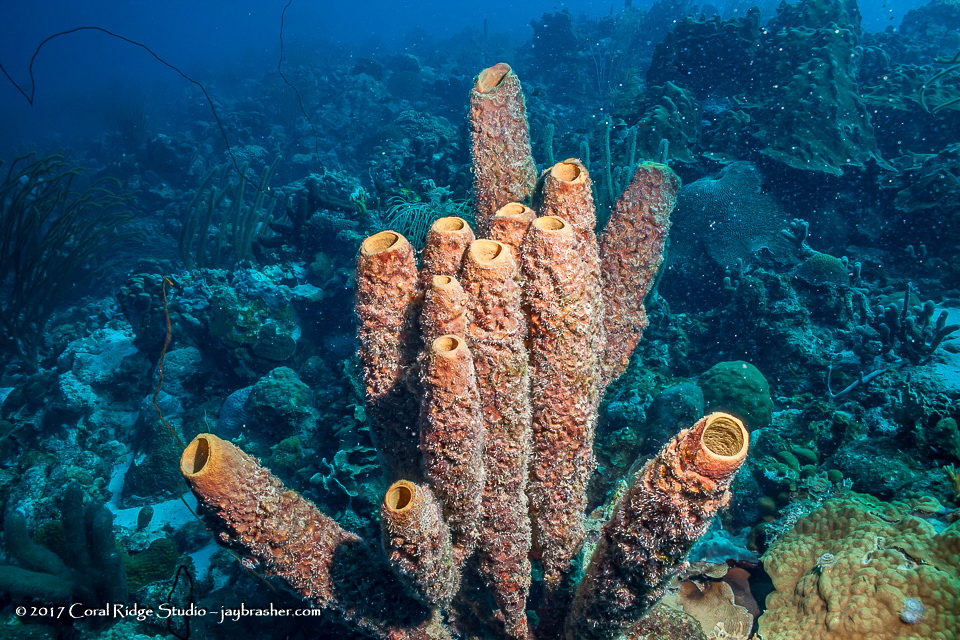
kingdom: Animalia
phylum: Porifera
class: Demospongiae
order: Verongiida
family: Aplysinidae
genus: Aplysina
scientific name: Aplysina archeri
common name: Stove-pipe sponge
